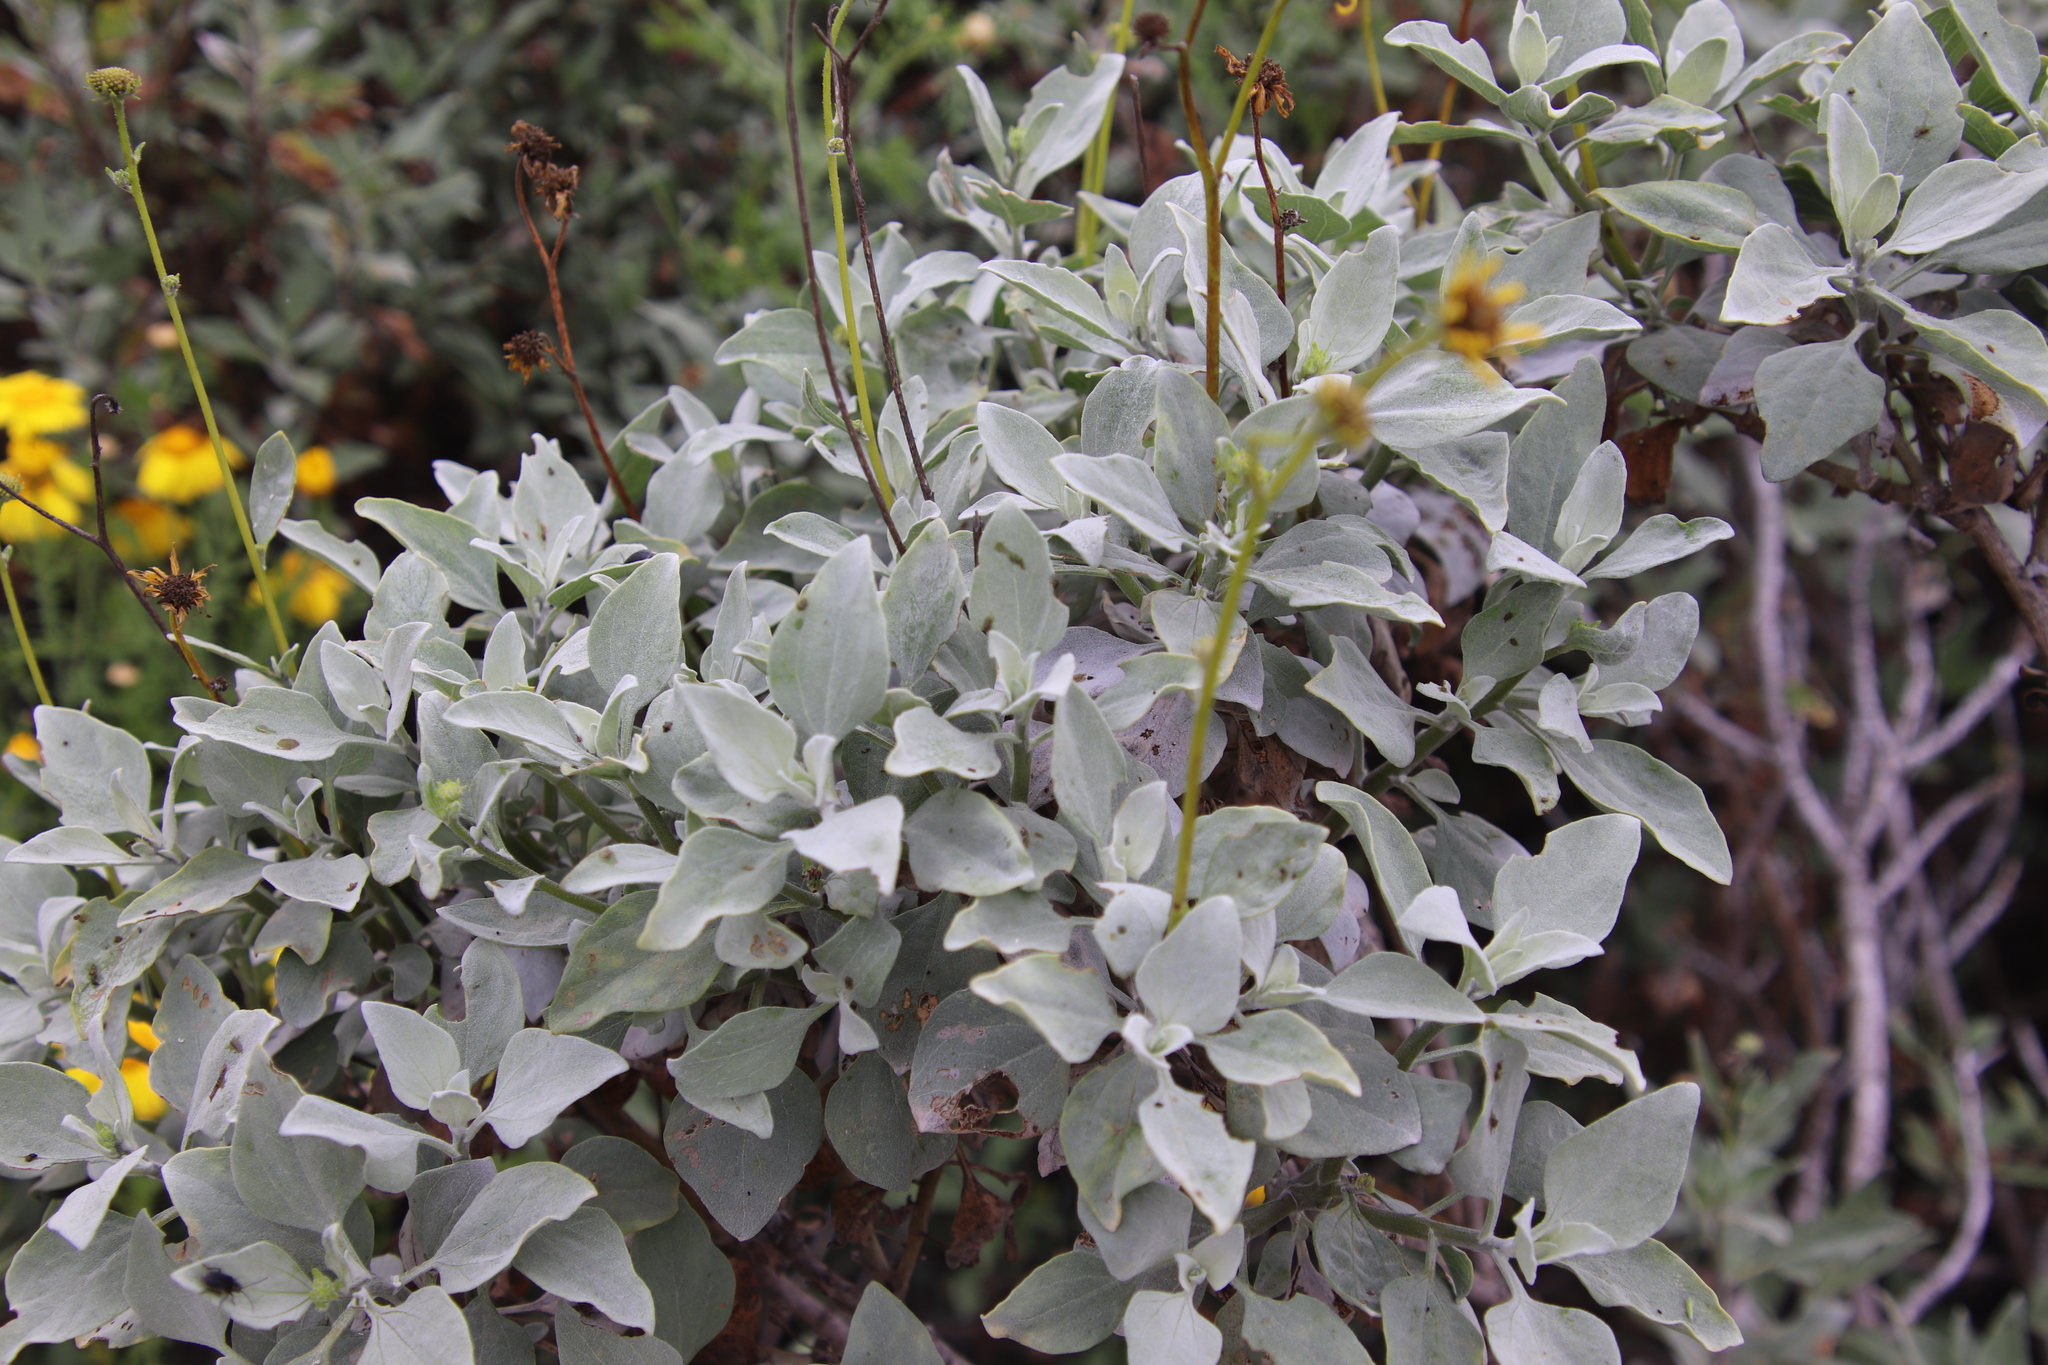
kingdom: Plantae
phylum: Tracheophyta
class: Magnoliopsida
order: Asterales
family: Asteraceae
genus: Encelia
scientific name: Encelia farinosa
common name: Brittlebush
